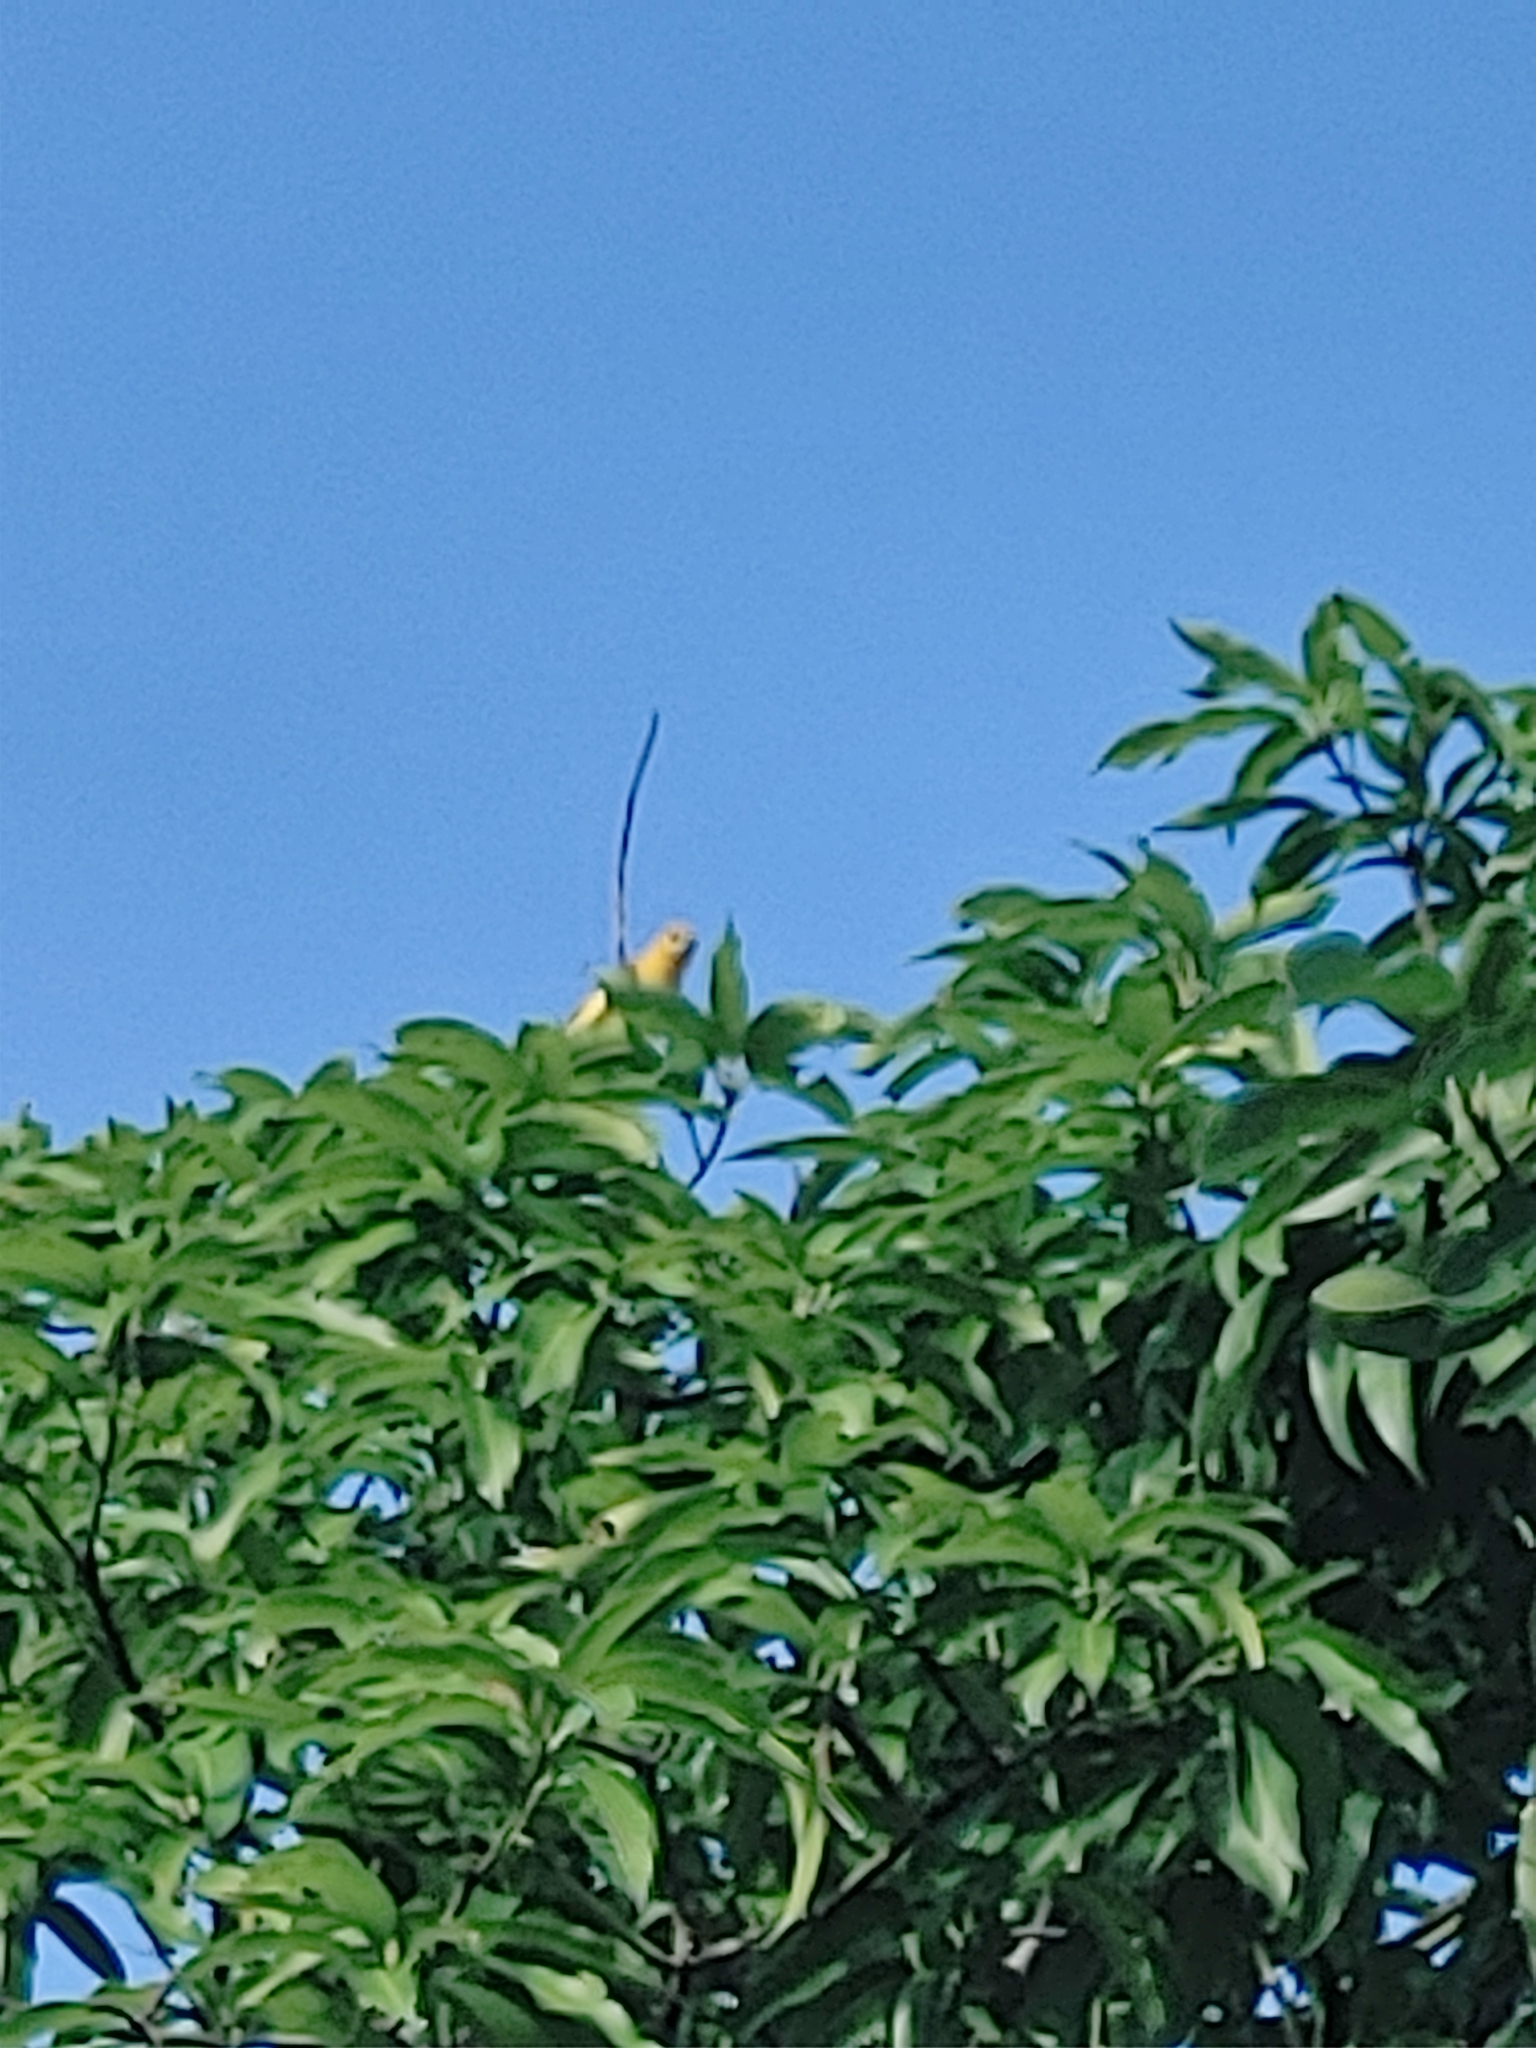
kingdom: Animalia
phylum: Chordata
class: Aves
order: Passeriformes
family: Icteridae
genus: Icterus
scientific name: Icterus pectoralis
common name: Spot-breasted oriole
